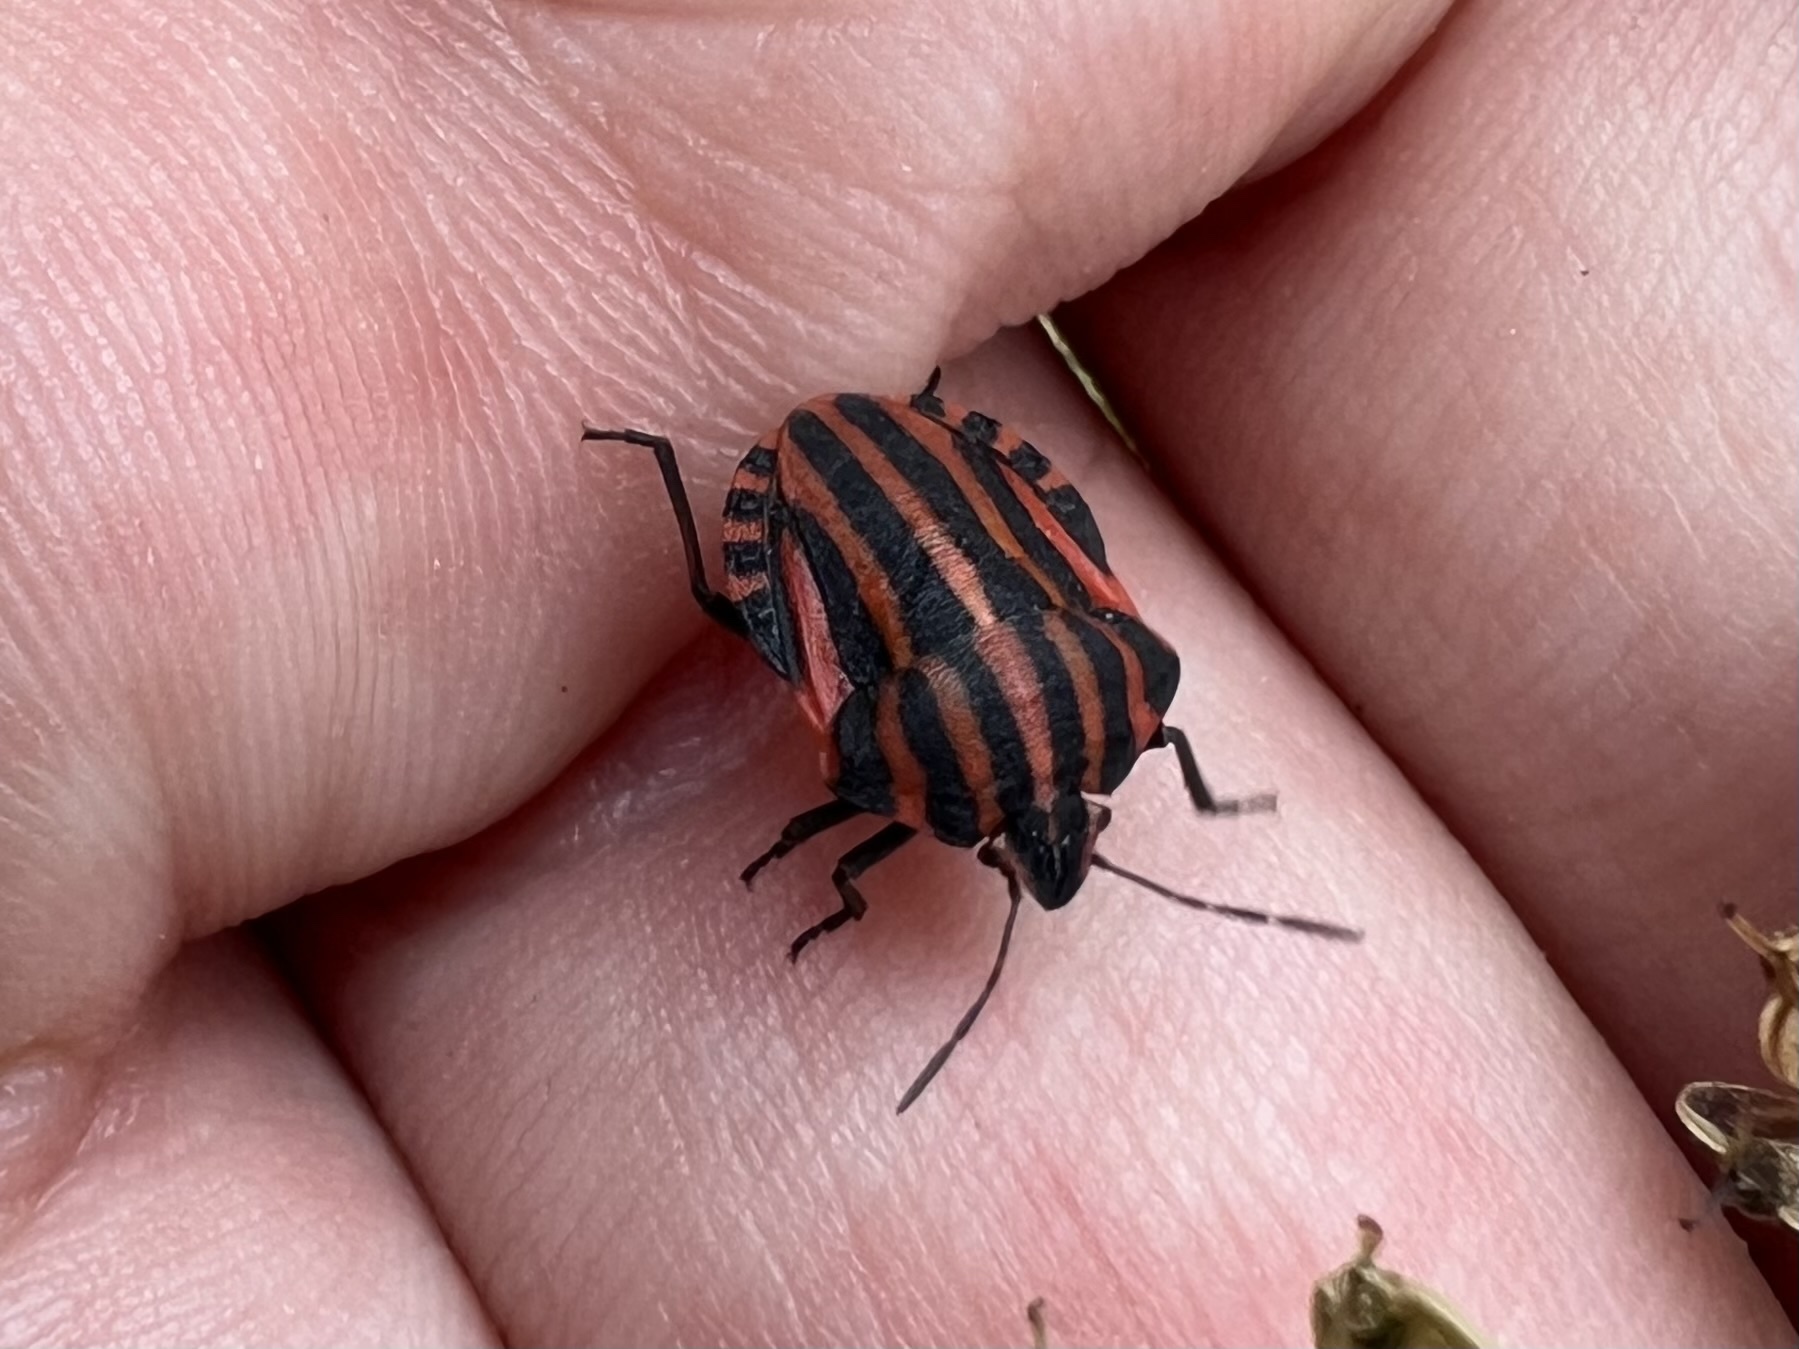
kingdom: Animalia
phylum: Arthropoda
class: Insecta
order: Hemiptera
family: Pentatomidae
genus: Graphosoma
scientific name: Graphosoma italicum
